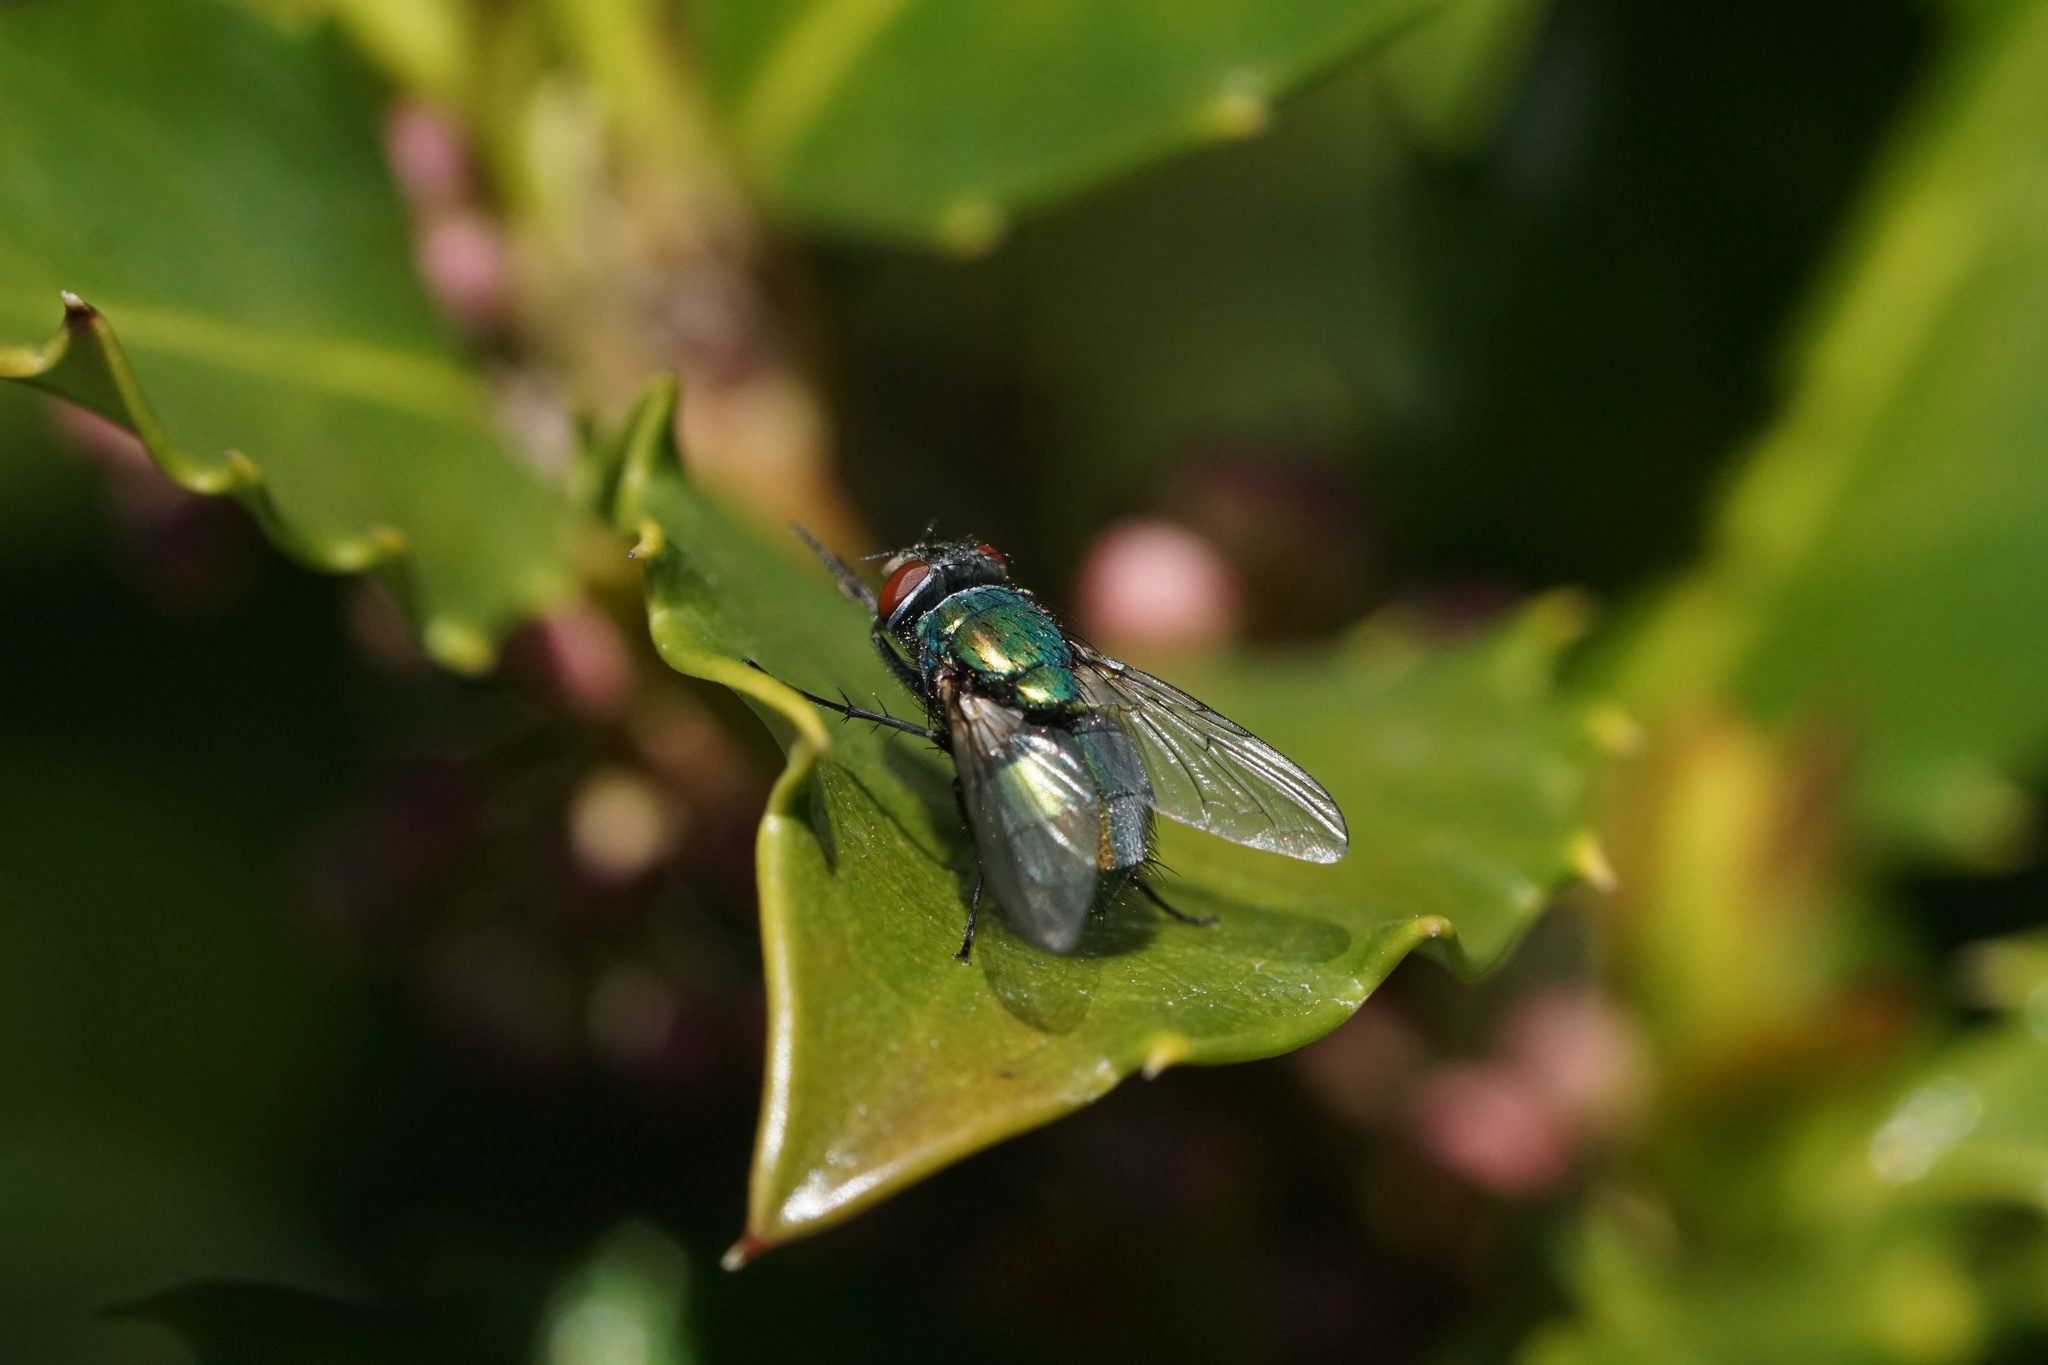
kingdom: Animalia
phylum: Arthropoda
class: Insecta
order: Diptera
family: Calliphoridae
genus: Lucilia
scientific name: Lucilia sericata
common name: Blow fly
